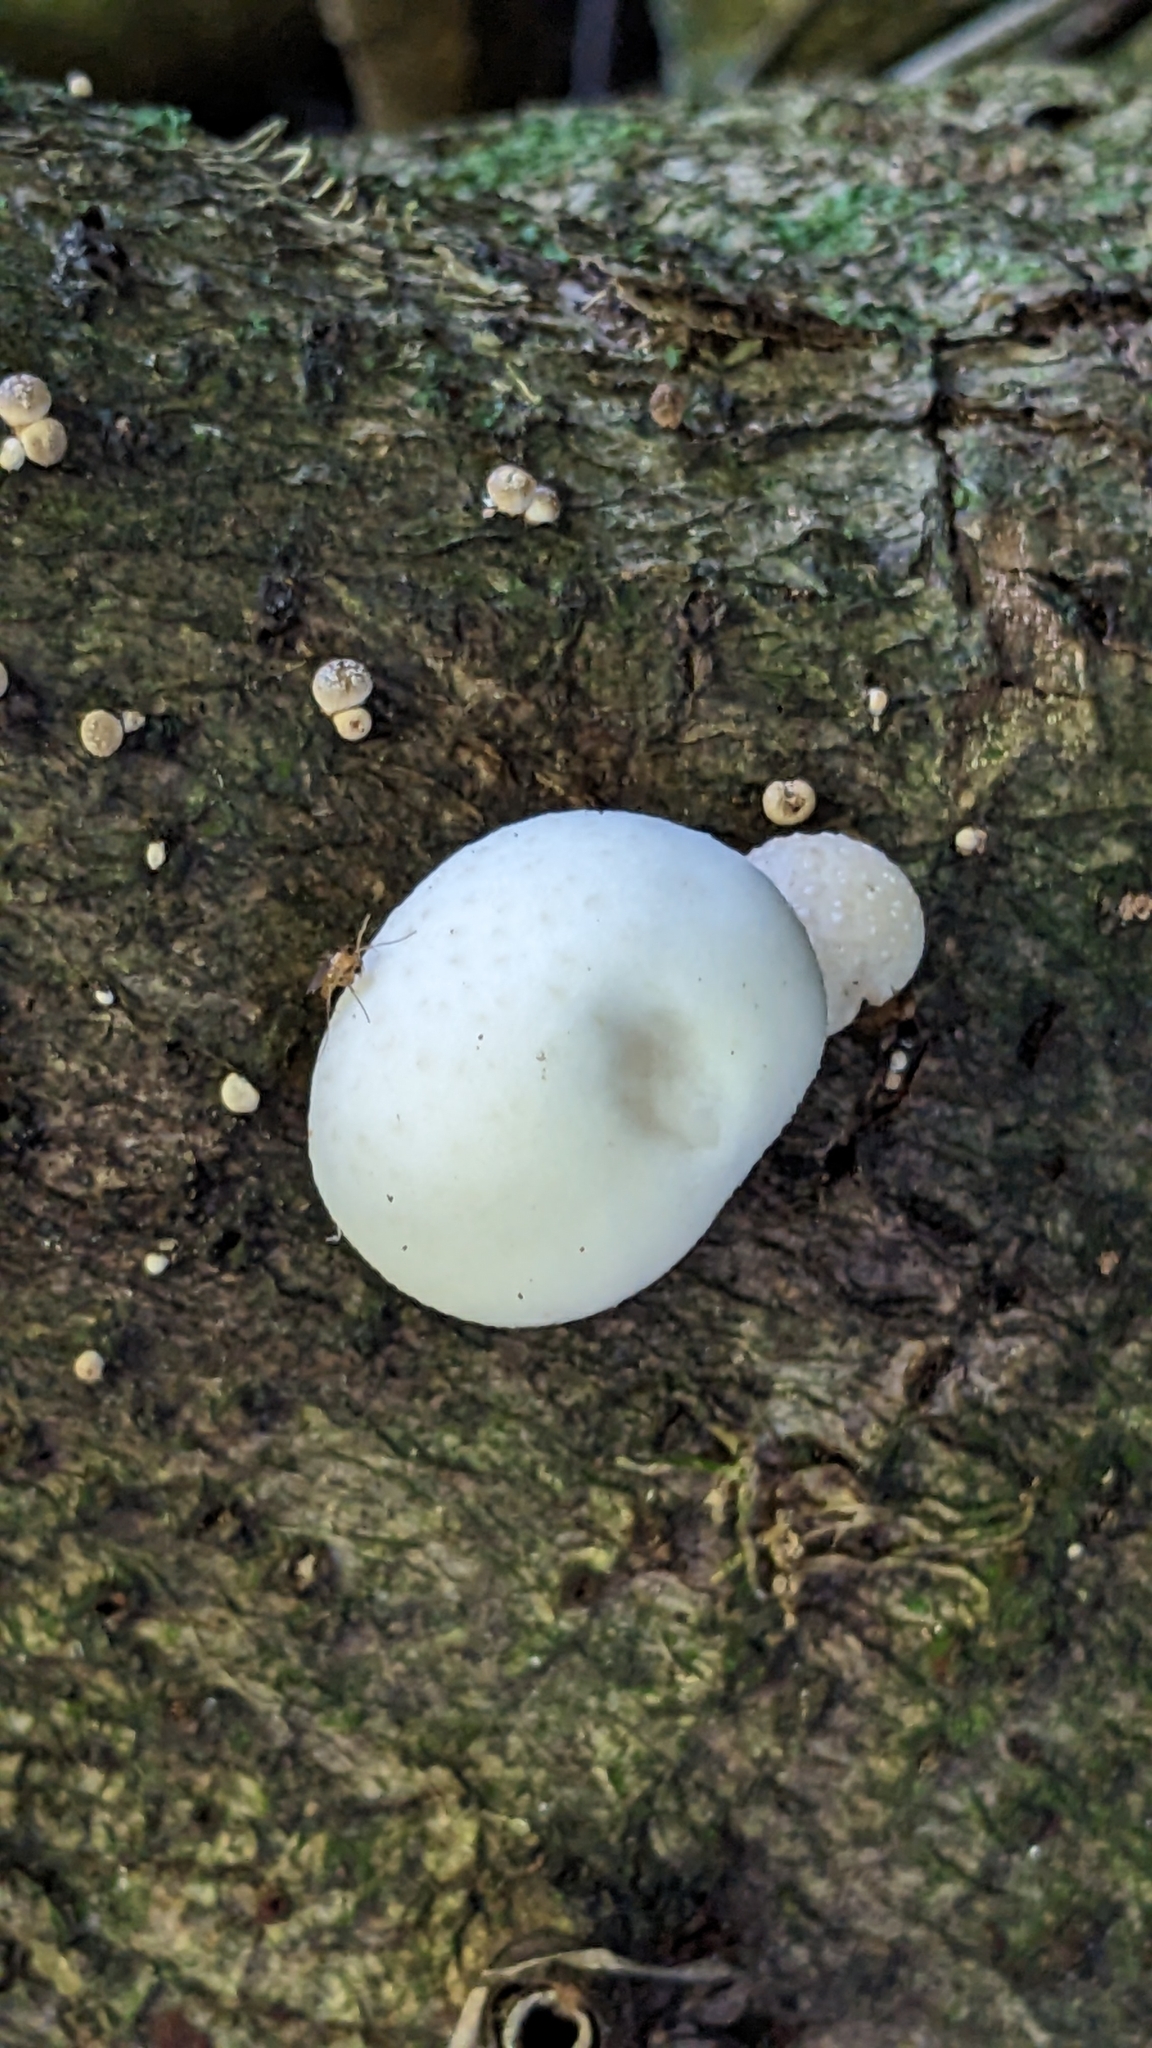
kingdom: Fungi
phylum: Basidiomycota
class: Agaricomycetes
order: Agaricales
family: Physalacriaceae
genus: Oudemansiella
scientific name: Oudemansiella australis
